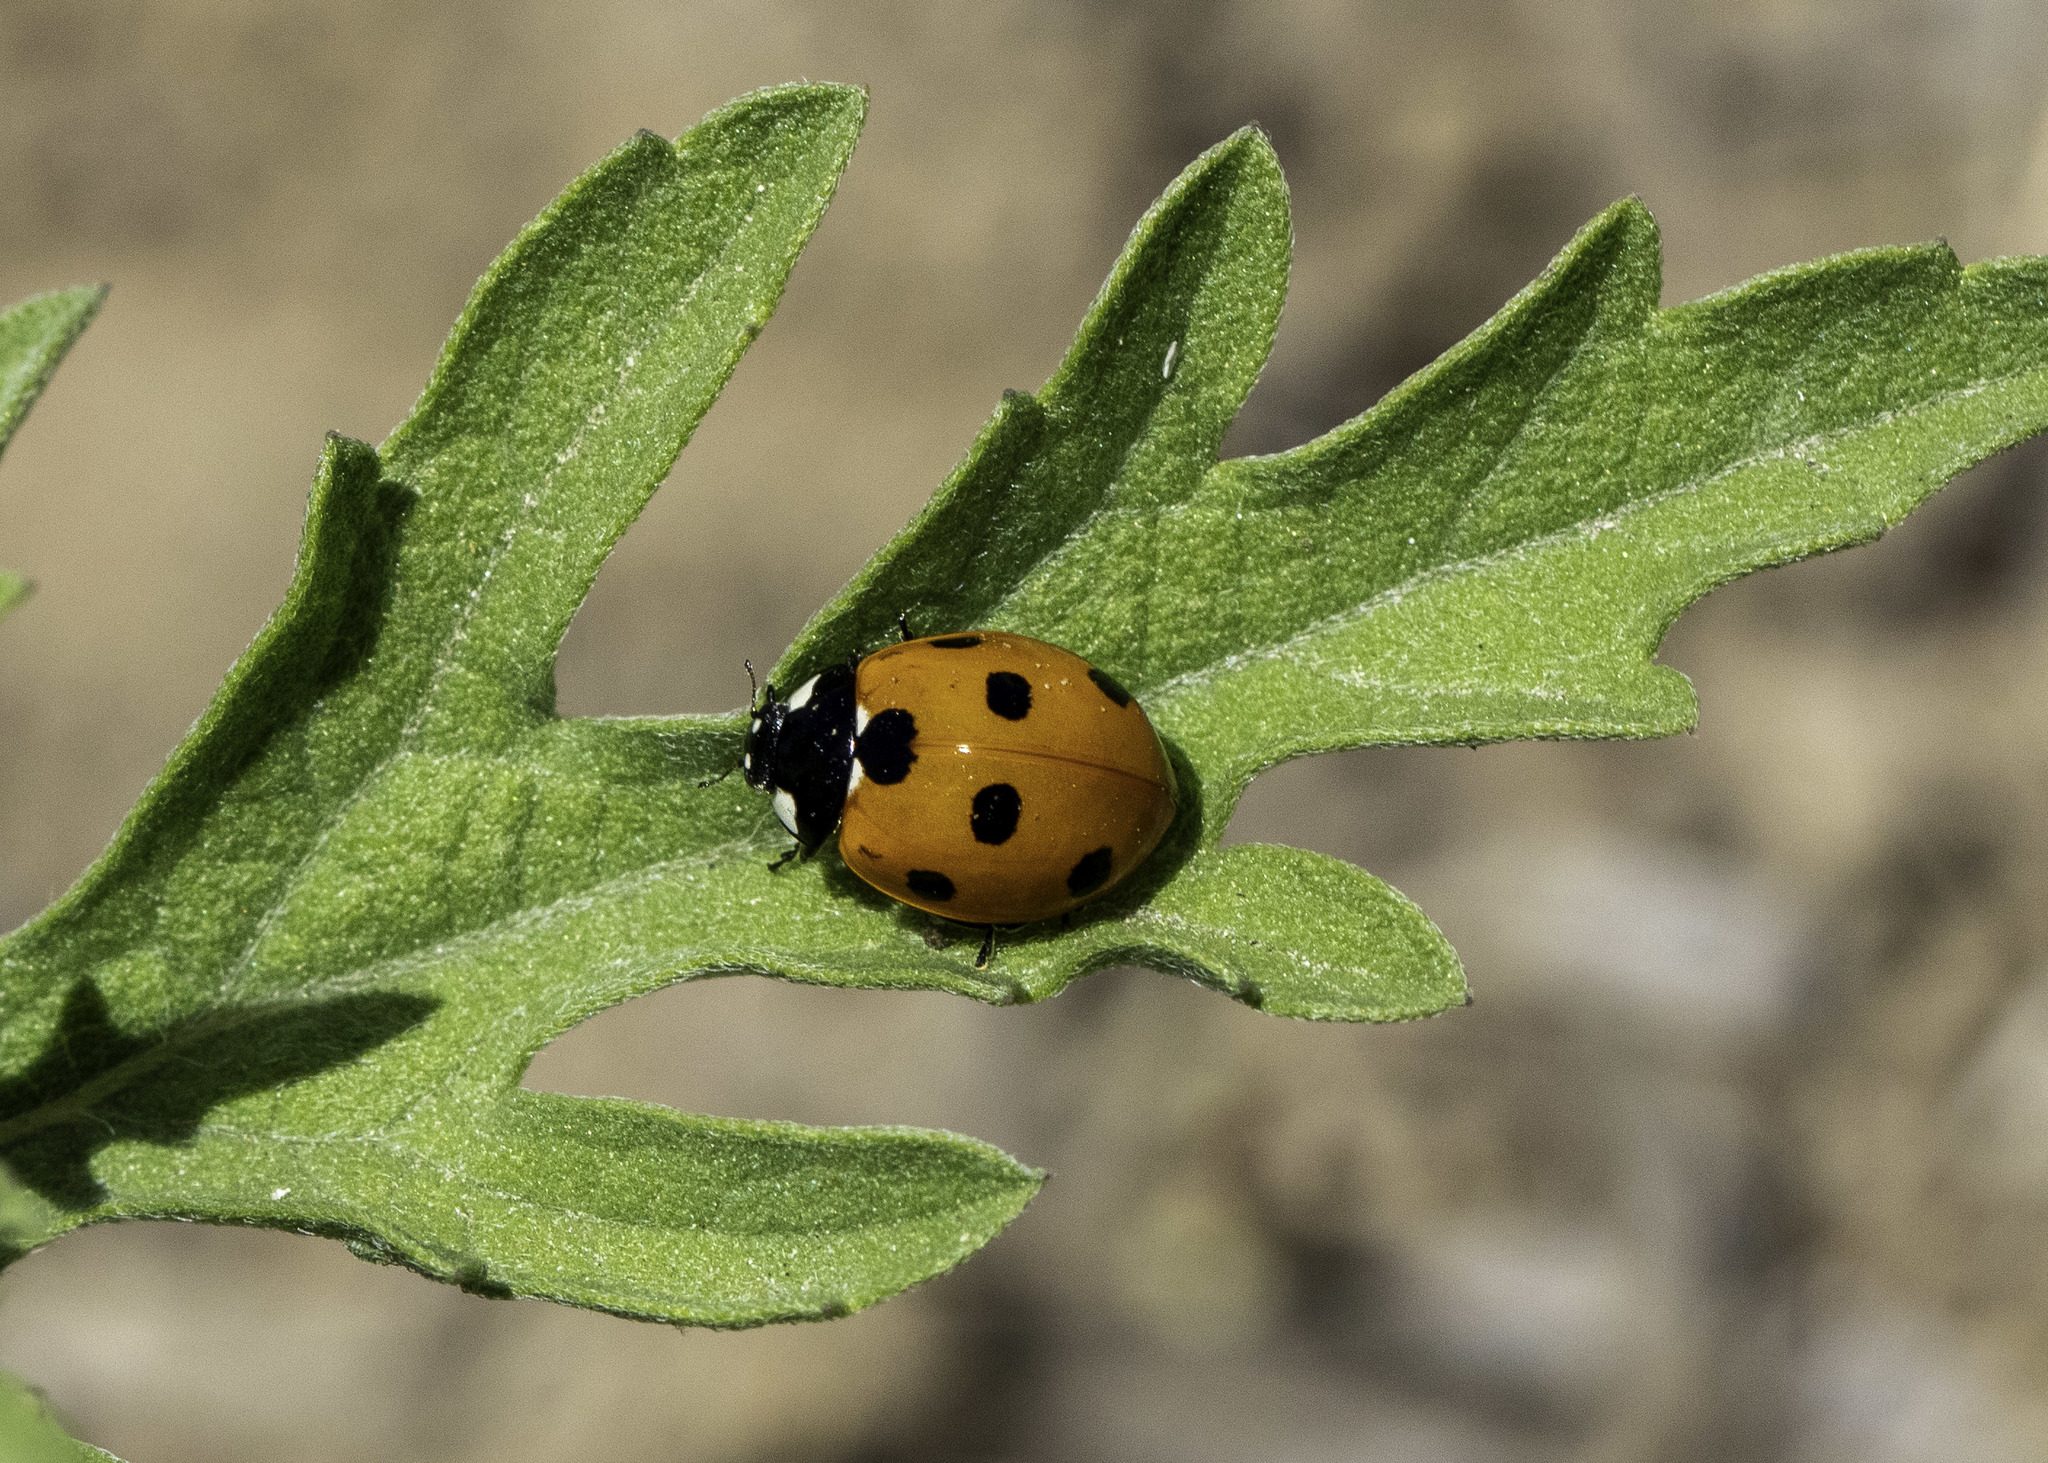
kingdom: Animalia
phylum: Arthropoda
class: Insecta
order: Coleoptera
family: Coccinellidae
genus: Coccinella
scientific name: Coccinella septempunctata
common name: Sevenspotted lady beetle
